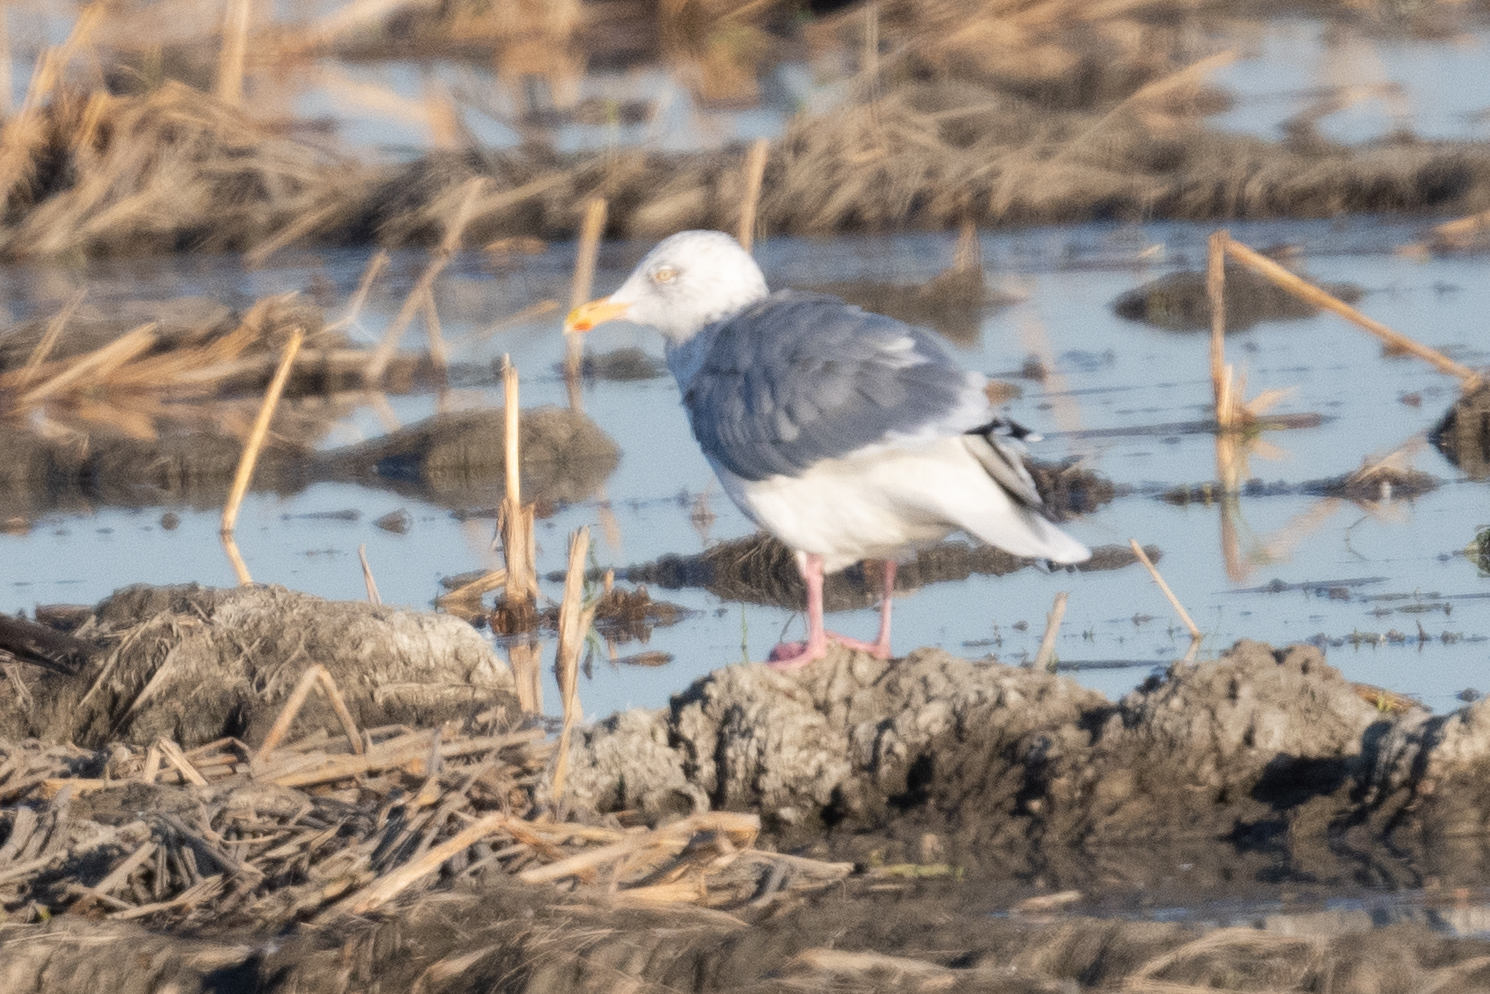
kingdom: Animalia
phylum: Chordata
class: Aves
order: Charadriiformes
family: Laridae
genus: Larus
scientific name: Larus argentatus
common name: Herring gull
